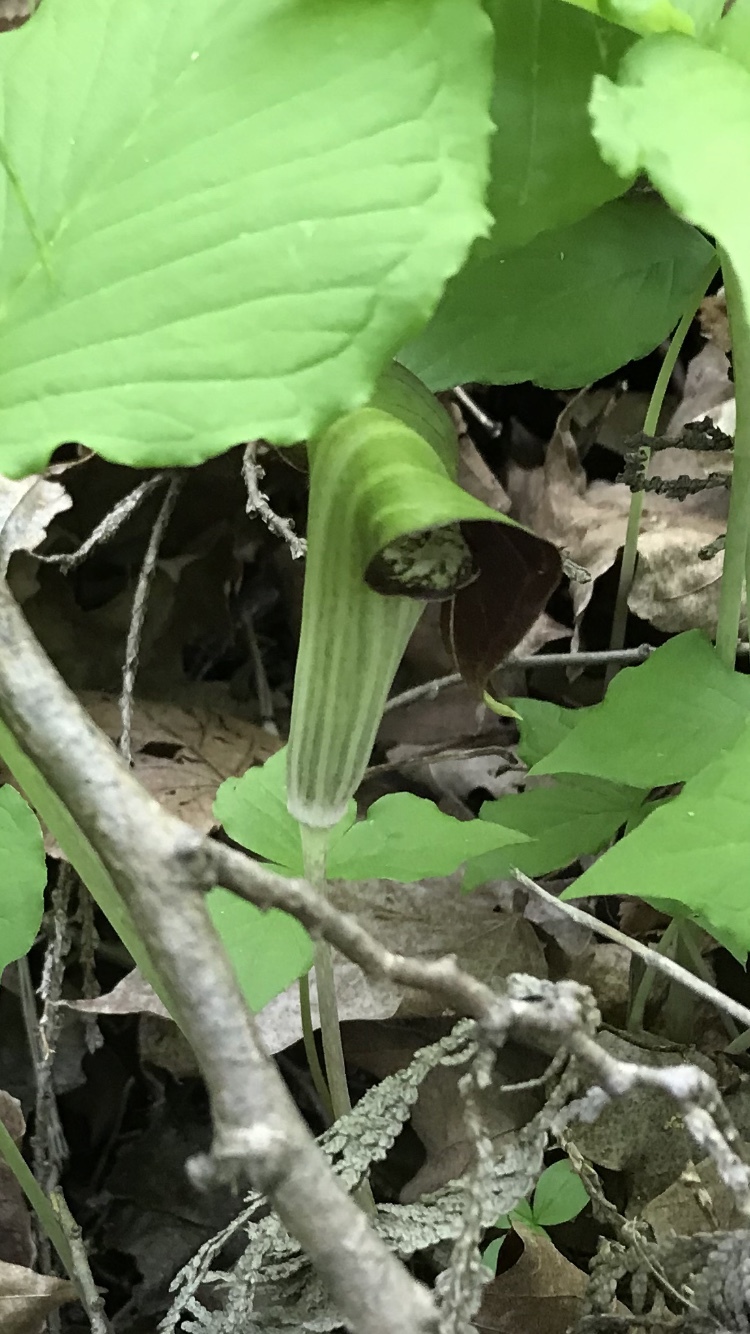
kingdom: Plantae
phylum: Tracheophyta
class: Liliopsida
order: Alismatales
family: Araceae
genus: Arisaema
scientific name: Arisaema triphyllum
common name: Jack-in-the-pulpit
